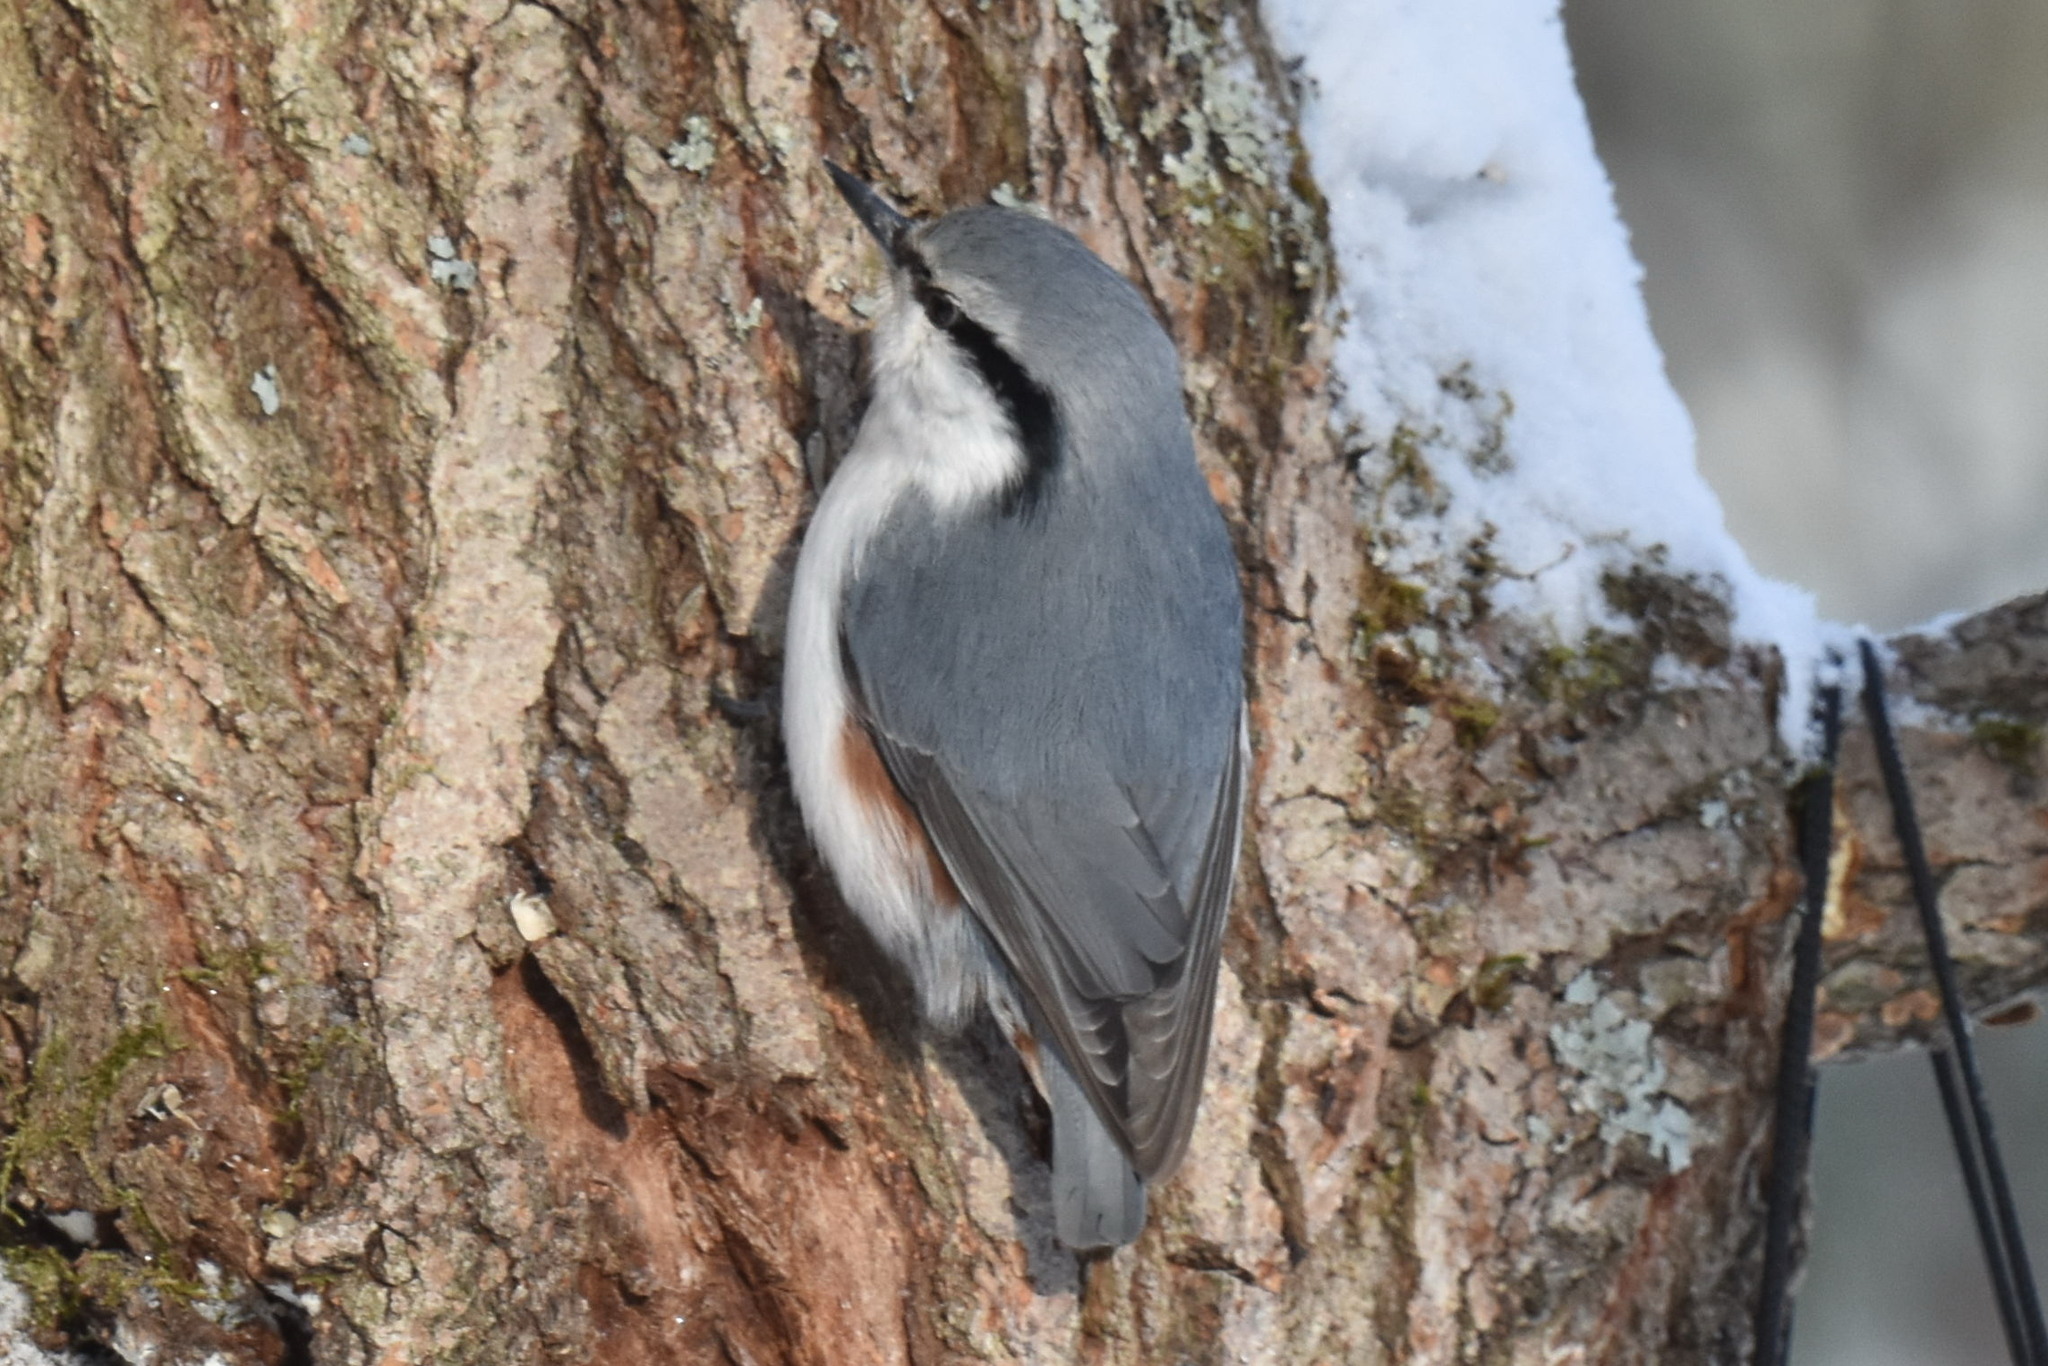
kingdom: Animalia
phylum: Chordata
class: Aves
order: Passeriformes
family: Sittidae
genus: Sitta
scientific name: Sitta europaea
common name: Eurasian nuthatch
